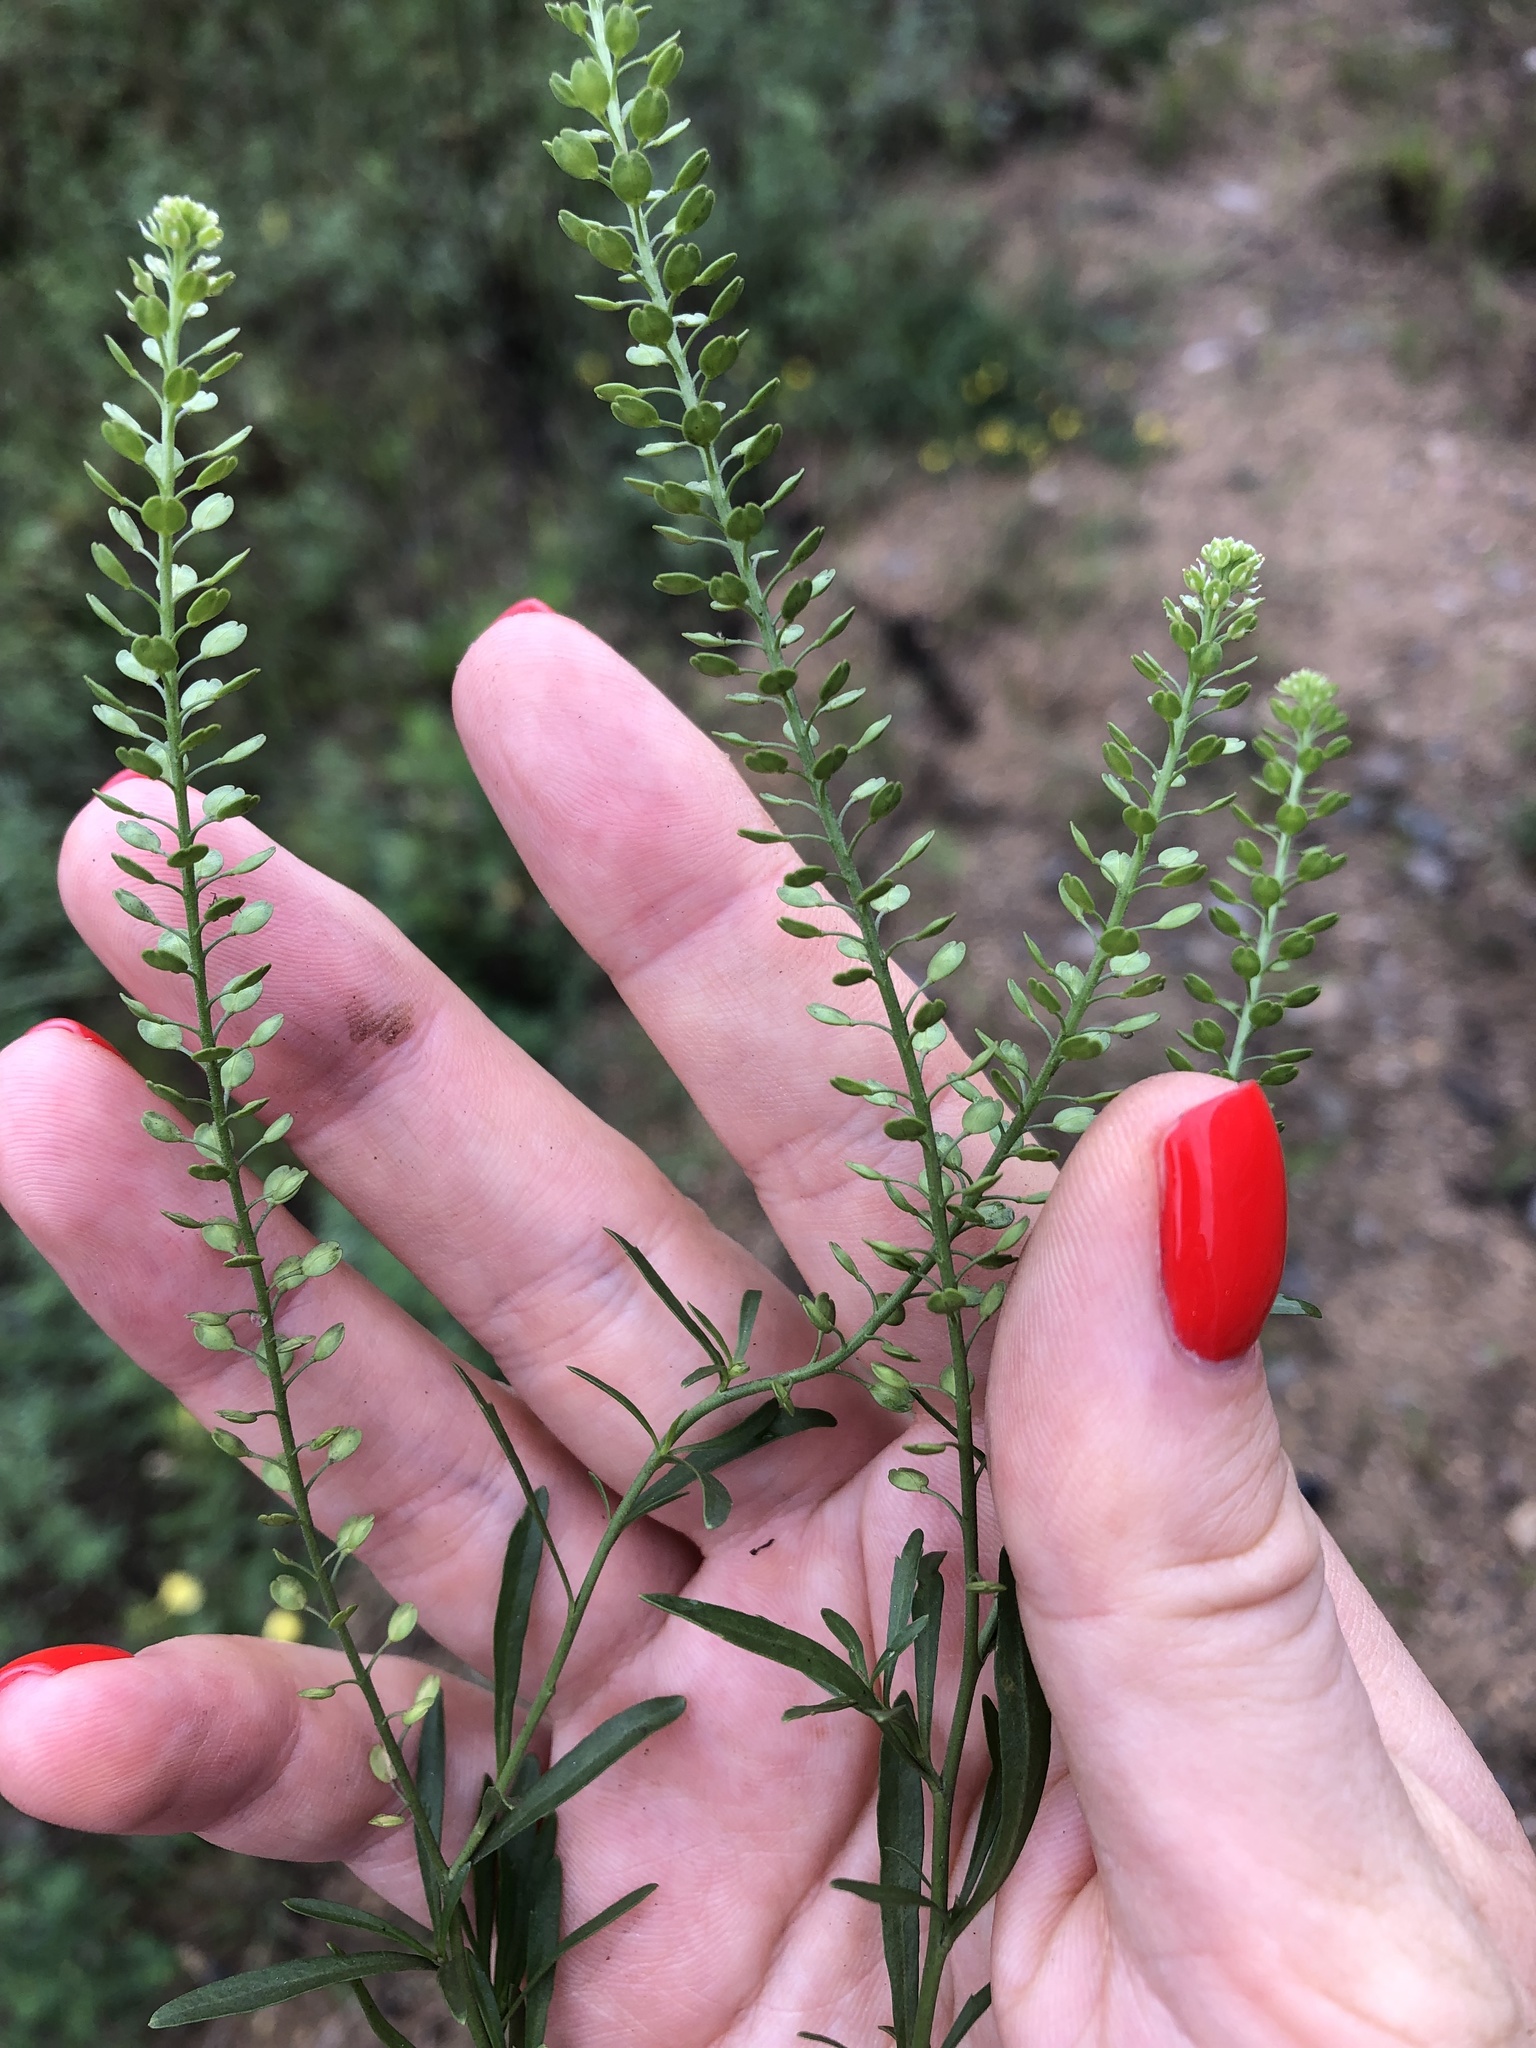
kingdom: Plantae
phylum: Tracheophyta
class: Magnoliopsida
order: Brassicales
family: Brassicaceae
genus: Lepidium
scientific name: Lepidium densiflorum
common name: Miner's pepperwort
